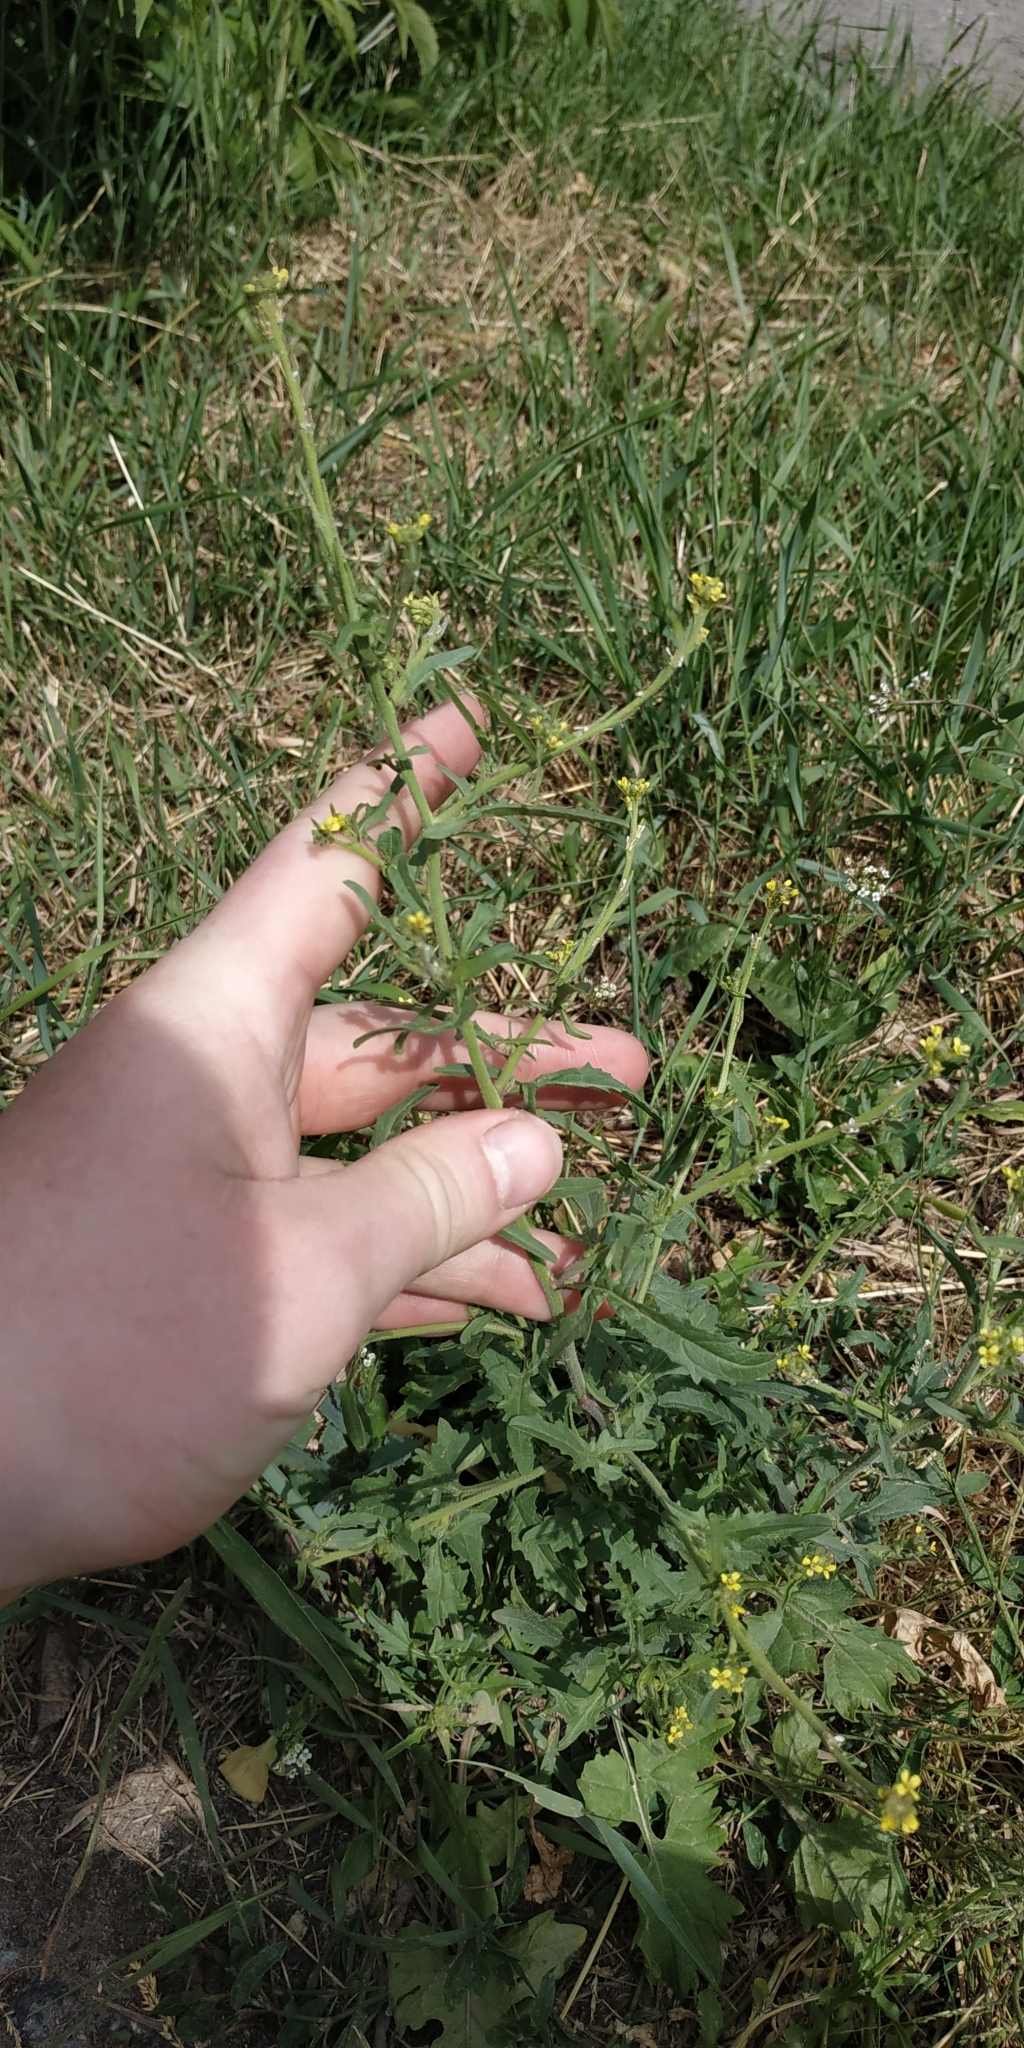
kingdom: Plantae
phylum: Tracheophyta
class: Magnoliopsida
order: Brassicales
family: Brassicaceae
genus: Sisymbrium
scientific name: Sisymbrium officinale
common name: Hedge mustard
